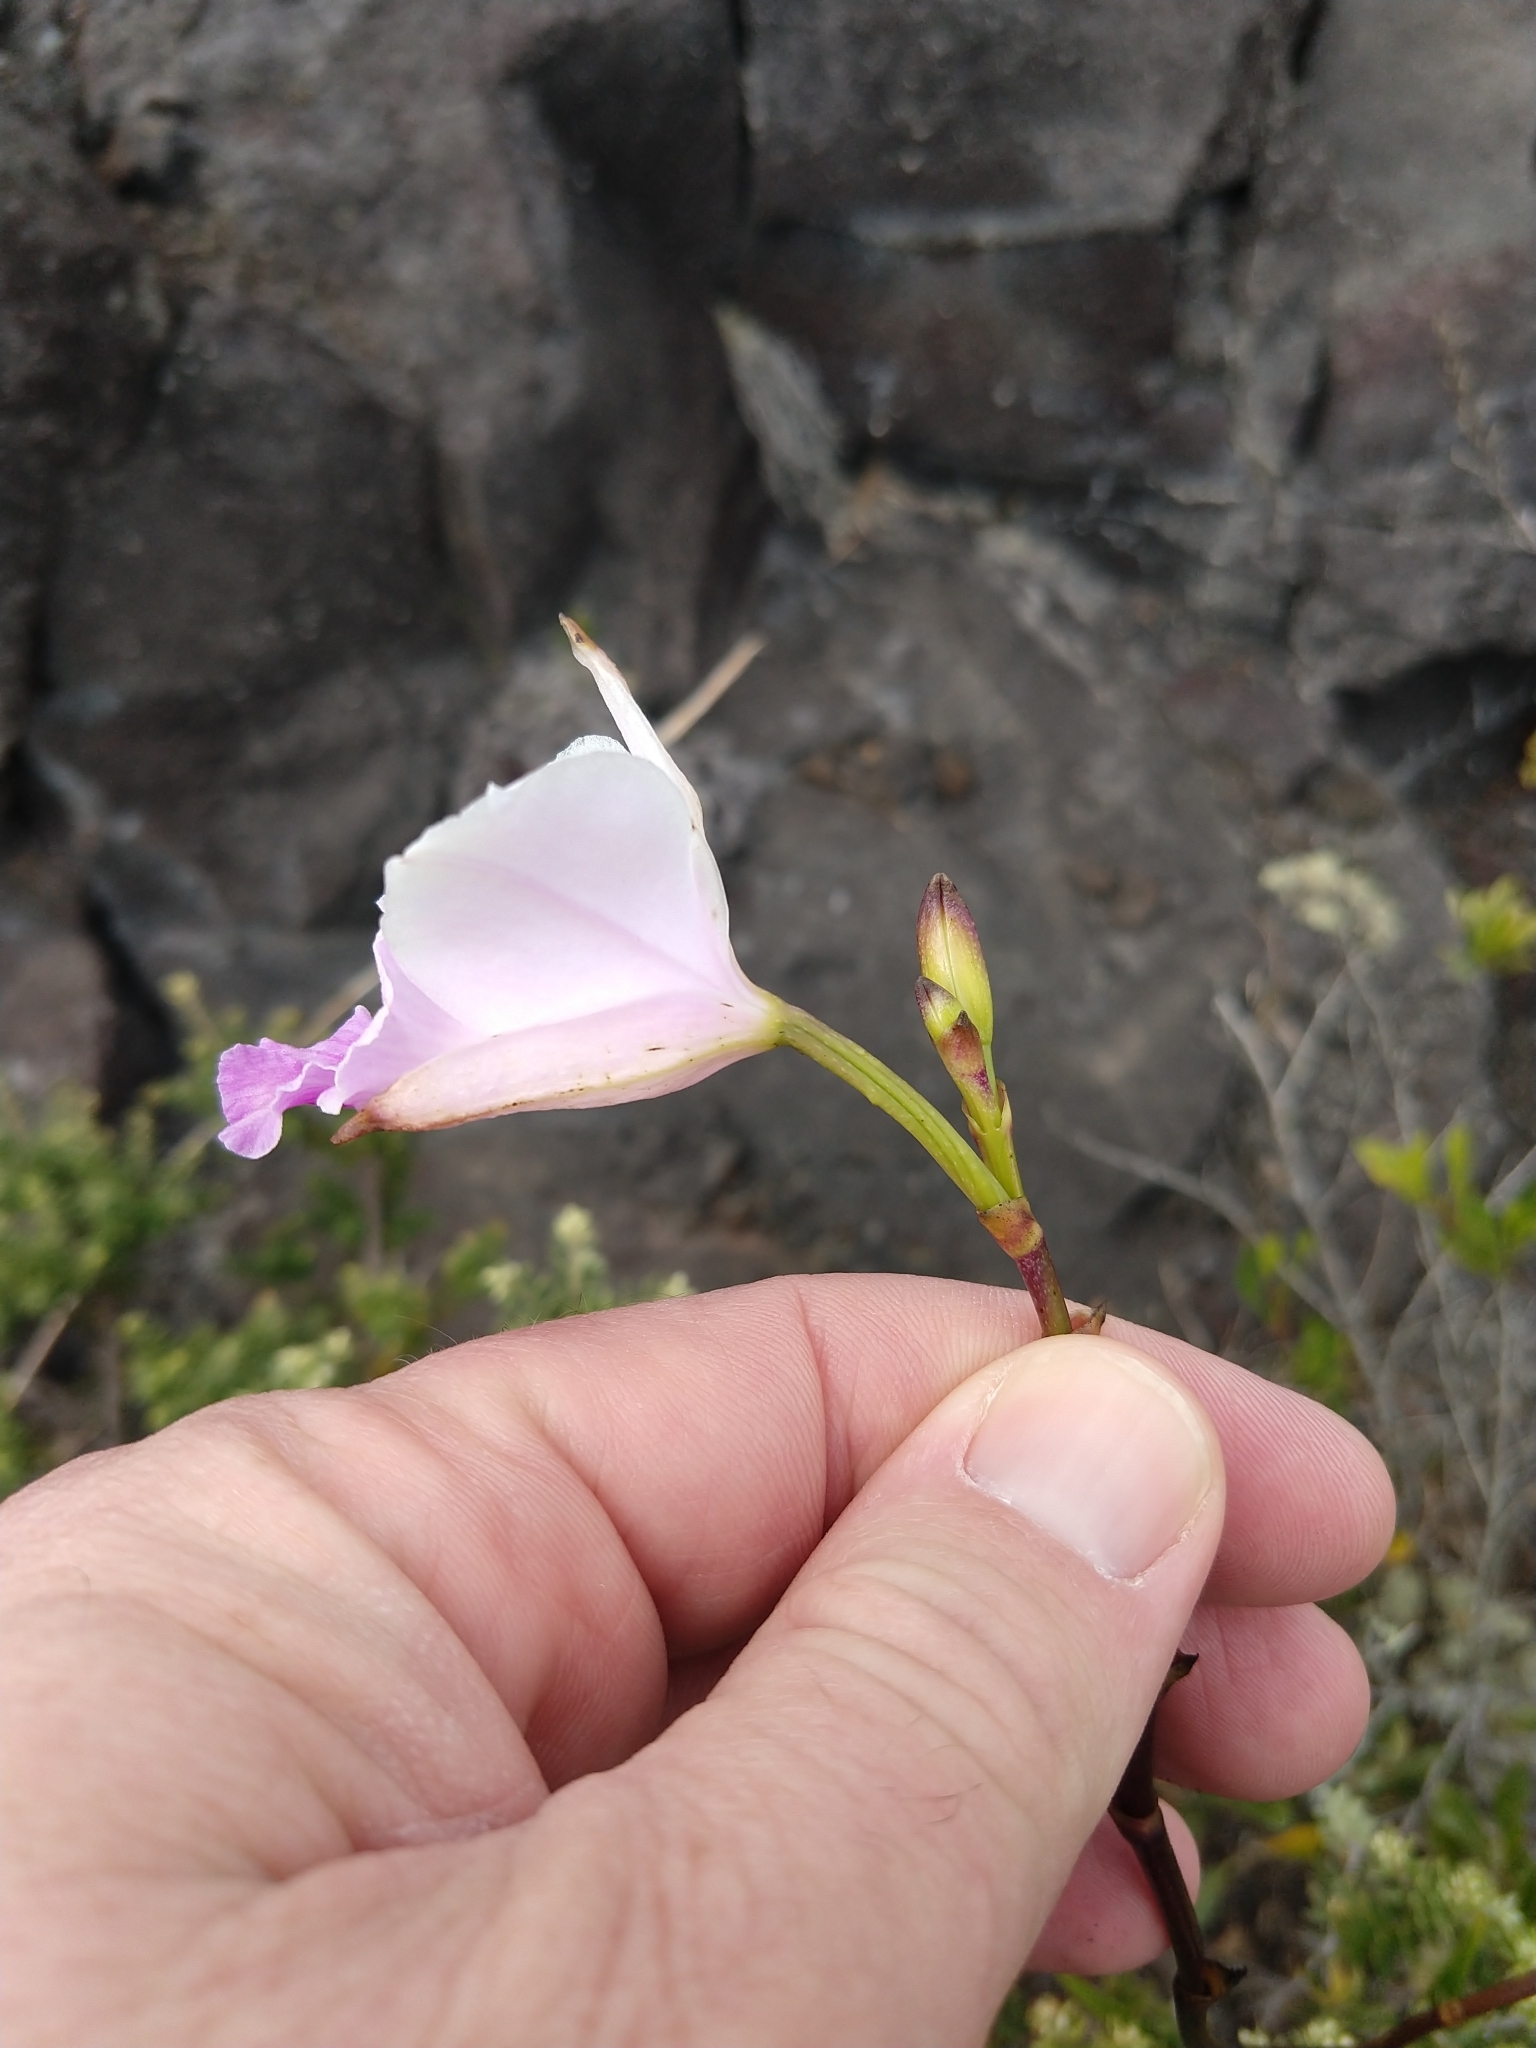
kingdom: Plantae
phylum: Tracheophyta
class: Liliopsida
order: Asparagales
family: Orchidaceae
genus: Arundina
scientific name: Arundina graminifolia
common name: Bamboo orchid
